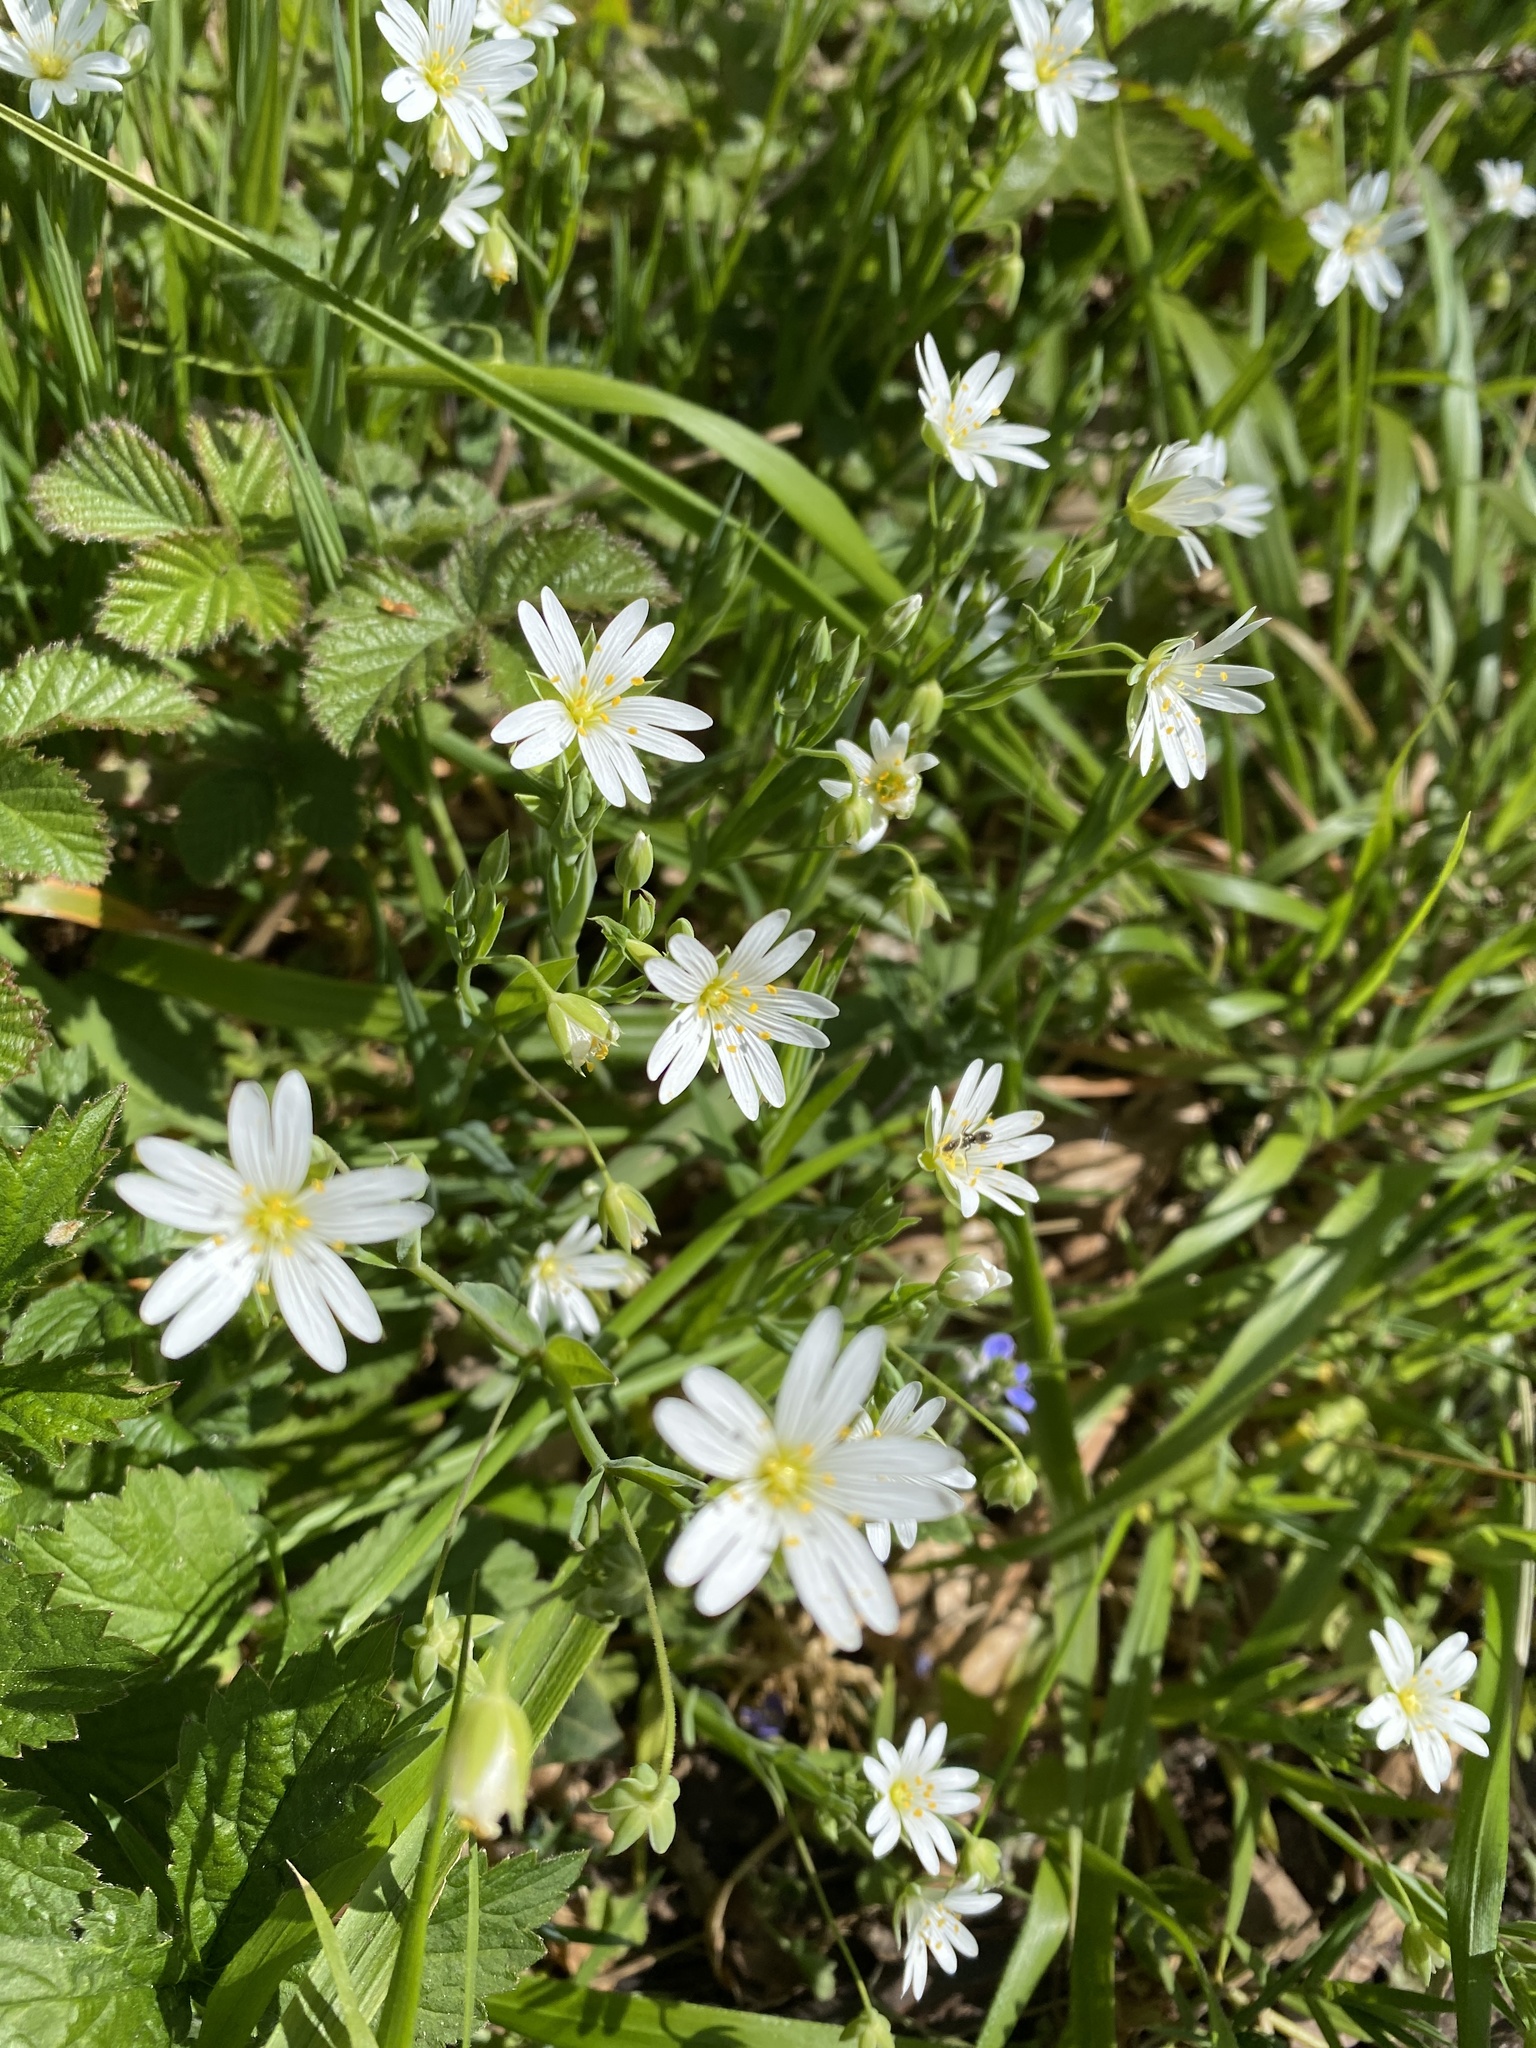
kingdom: Plantae
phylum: Tracheophyta
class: Magnoliopsida
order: Caryophyllales
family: Caryophyllaceae
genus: Rabelera
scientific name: Rabelera holostea
